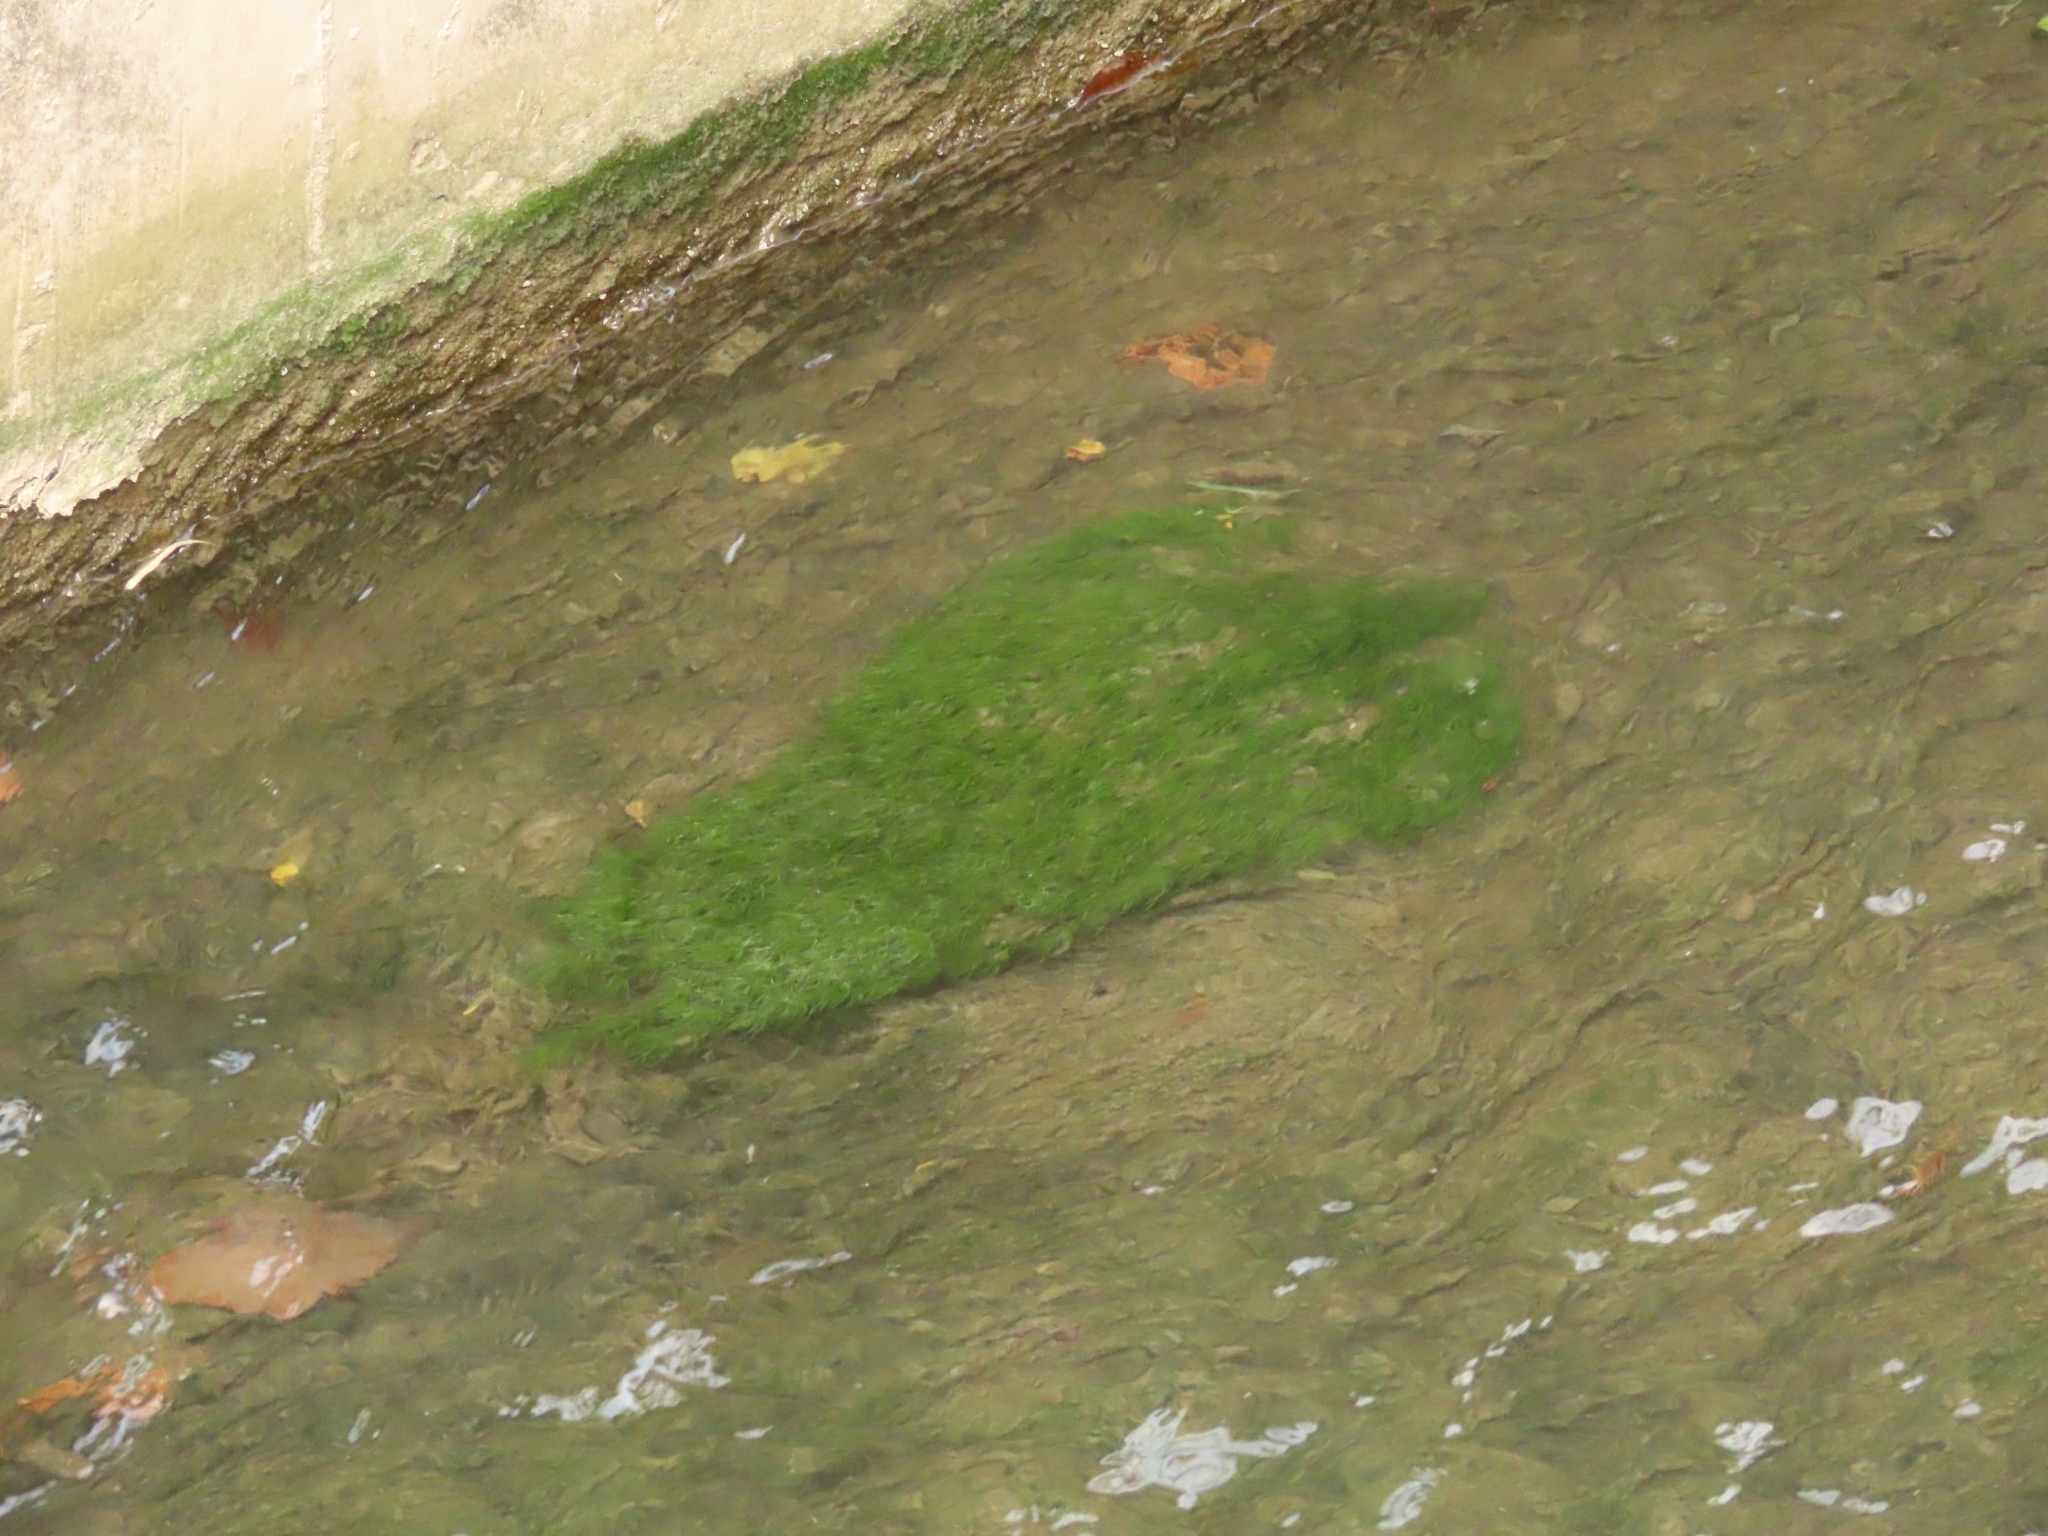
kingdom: Plantae
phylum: Tracheophyta
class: Liliopsida
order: Alismatales
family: Potamogetonaceae
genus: Potamogeton
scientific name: Potamogeton pusillus
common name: Lesser pondweed
